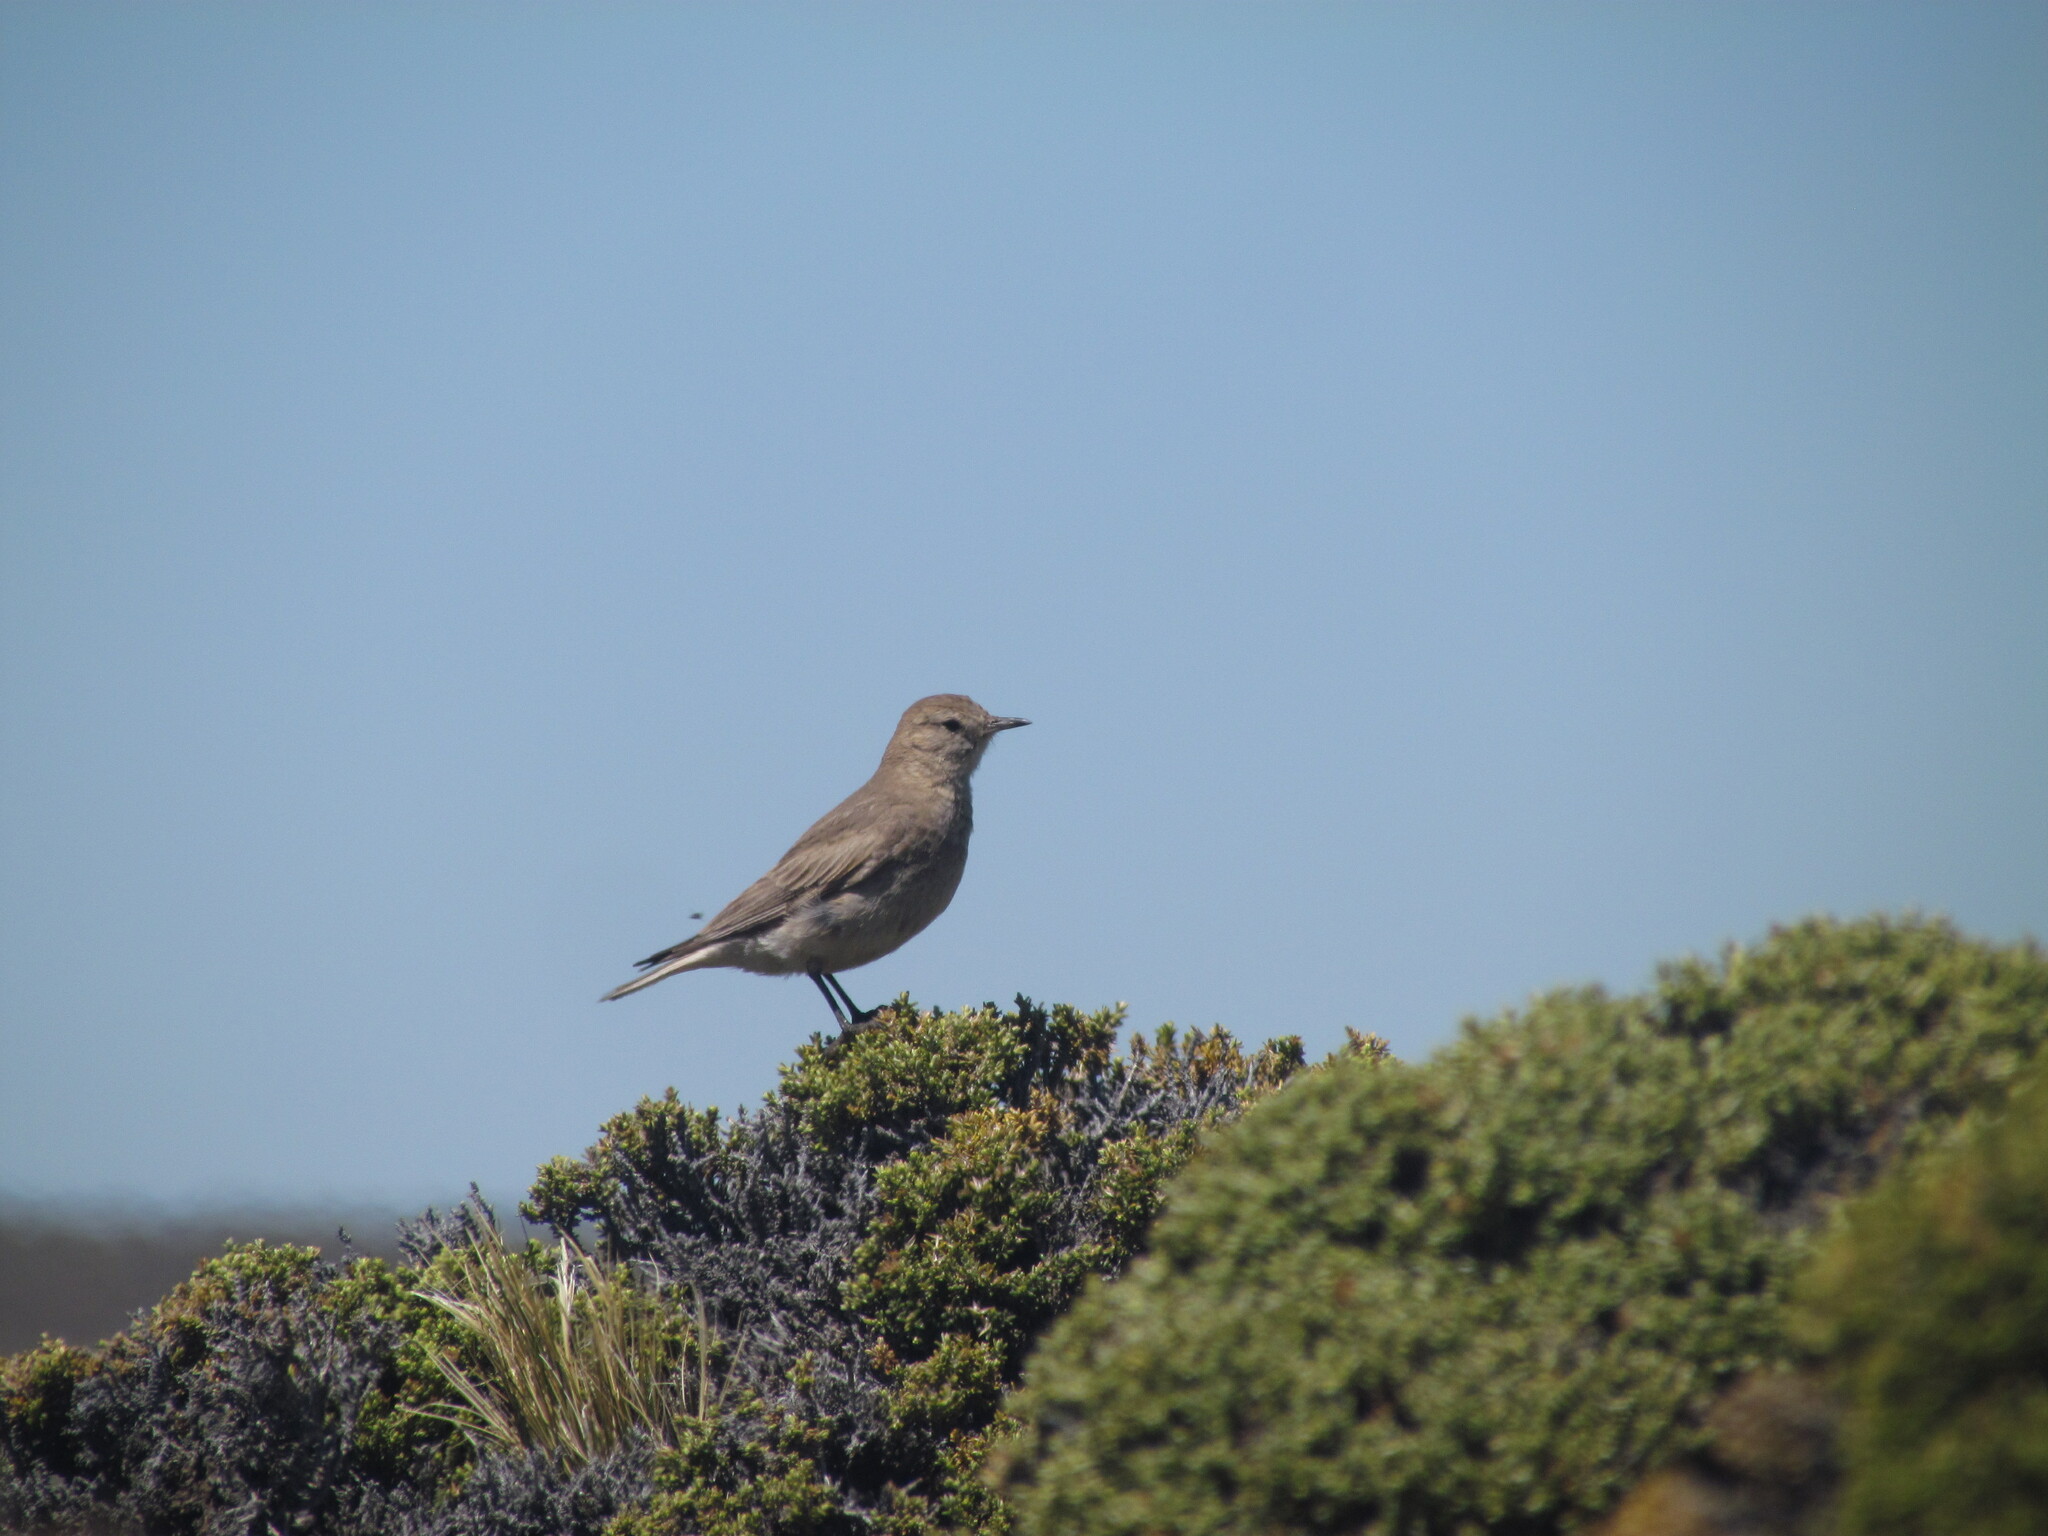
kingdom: Animalia
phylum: Chordata
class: Aves
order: Passeriformes
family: Furnariidae
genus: Geositta
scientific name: Geositta antarctica
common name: Short-billed miner
